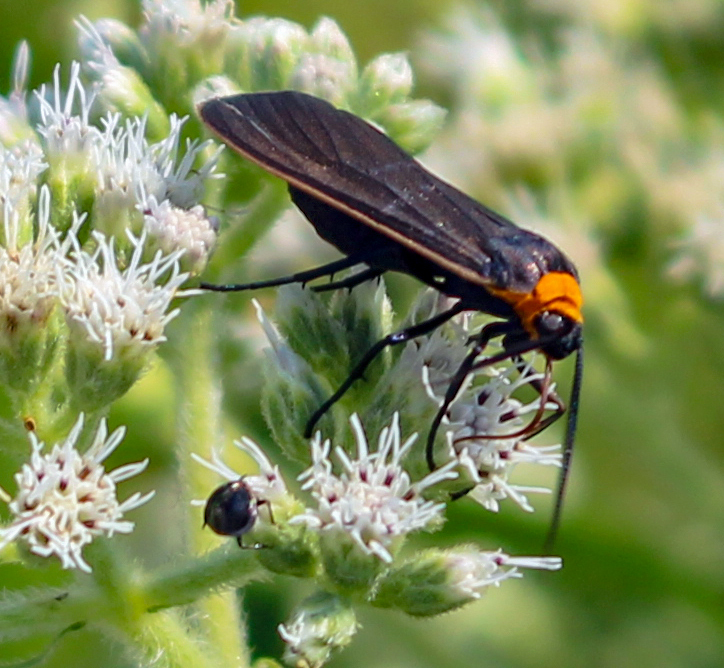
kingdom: Animalia
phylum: Arthropoda
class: Insecta
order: Lepidoptera
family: Erebidae
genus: Cisseps
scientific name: Cisseps fulvicollis
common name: Yellow-collared scape moth
